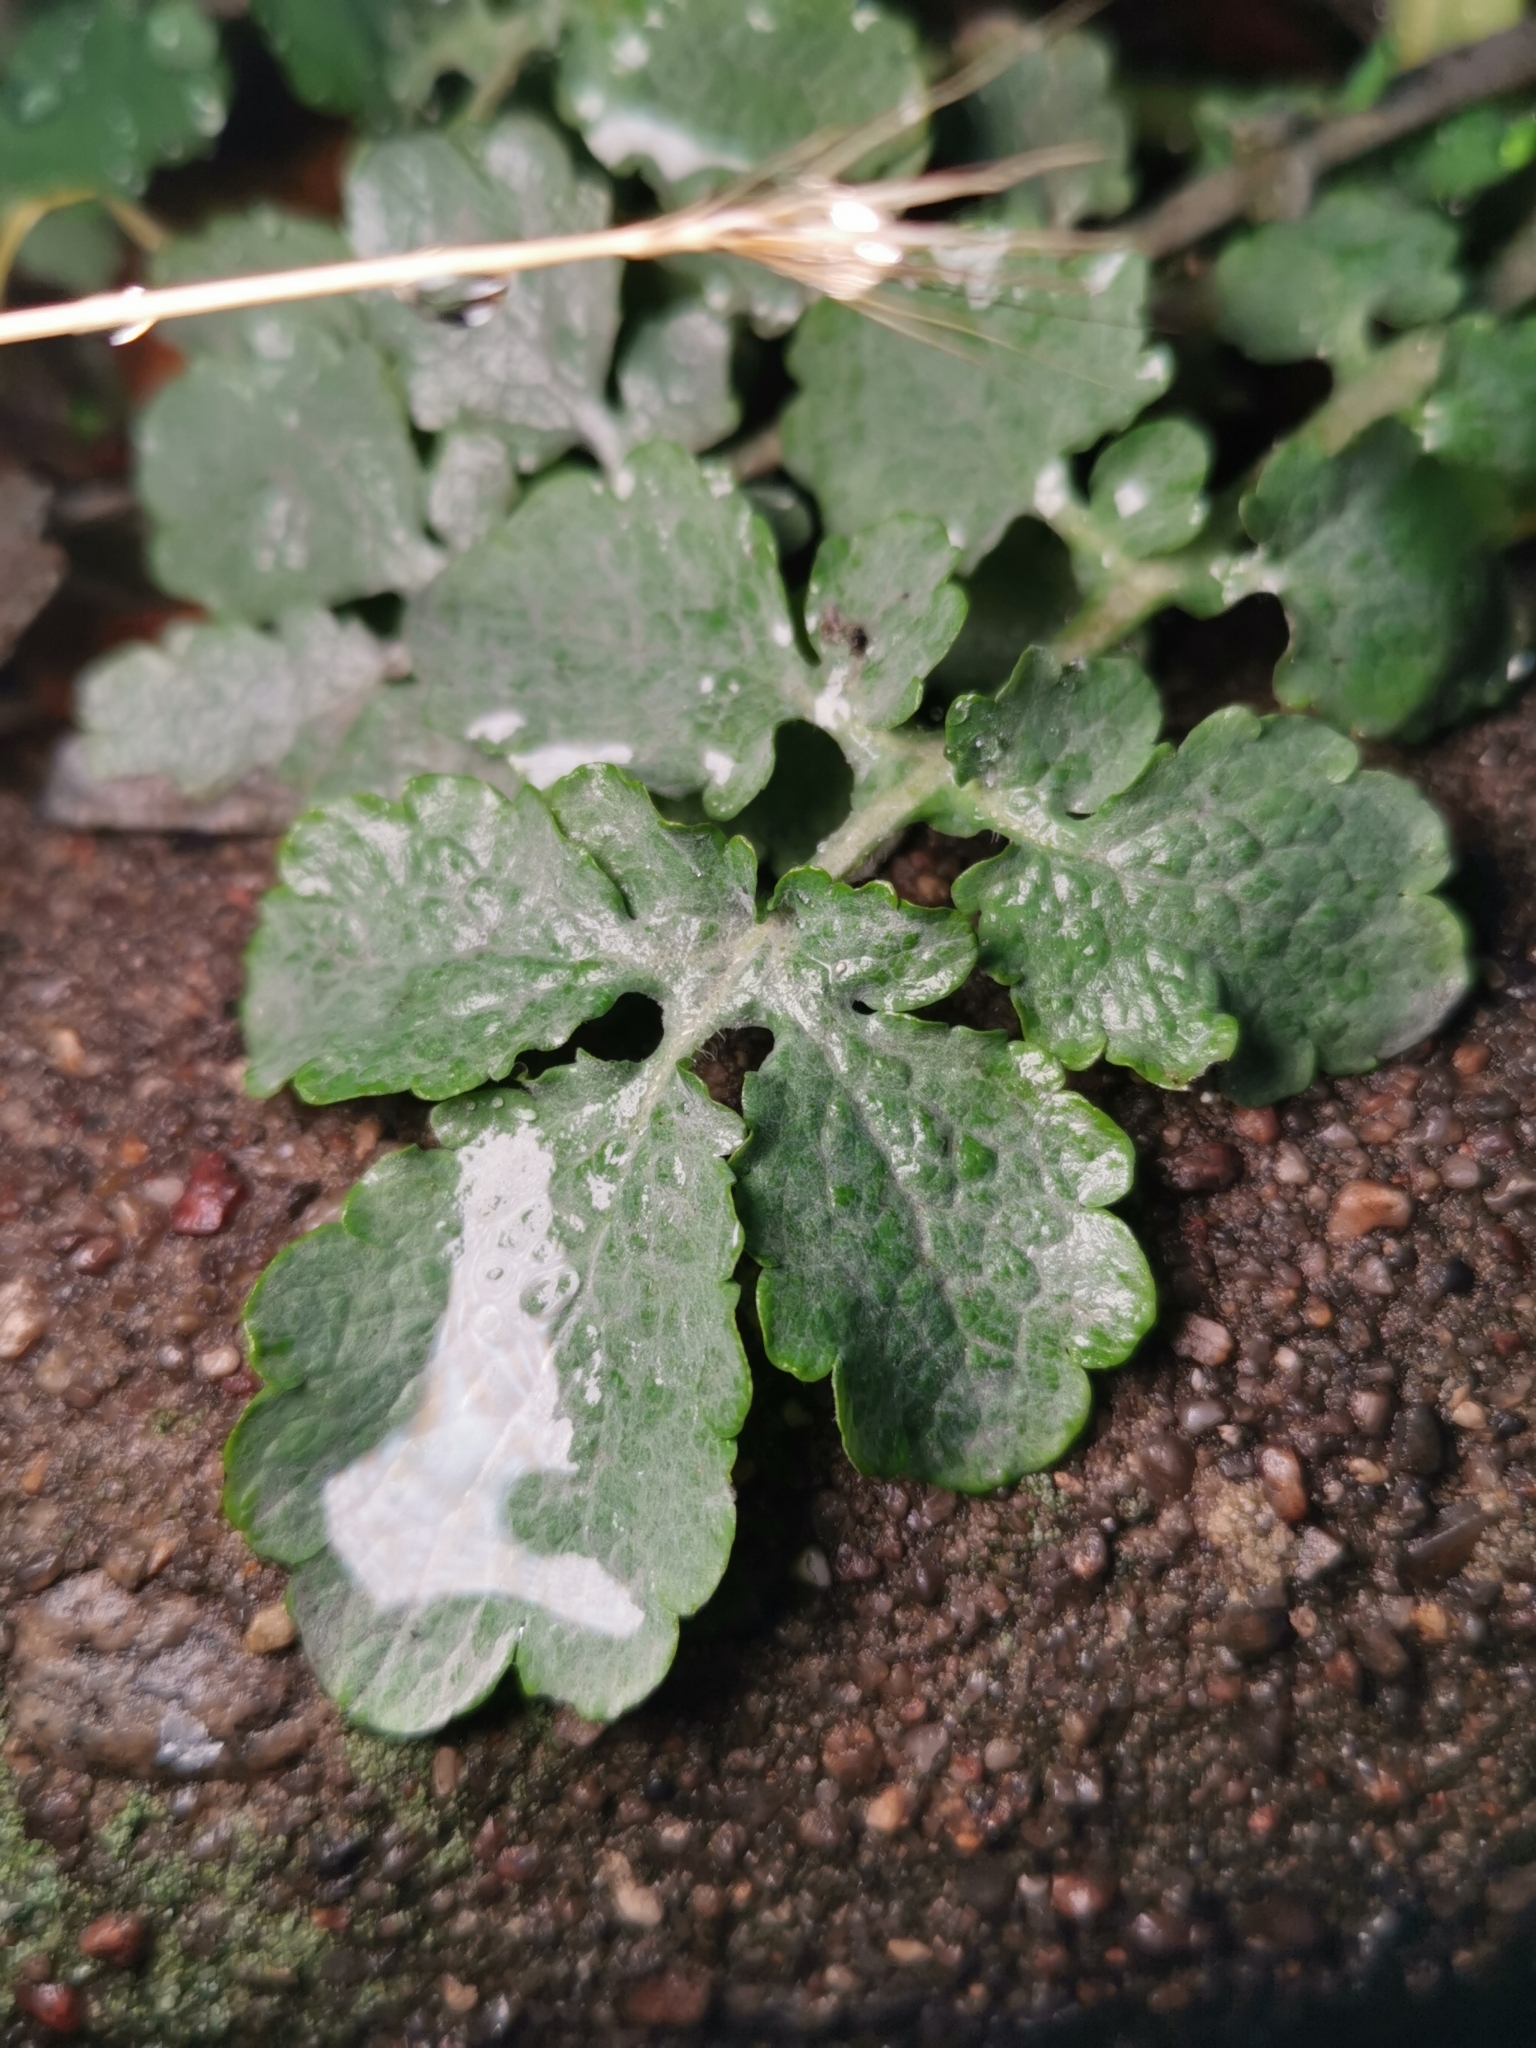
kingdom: Plantae
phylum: Tracheophyta
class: Magnoliopsida
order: Ranunculales
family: Papaveraceae
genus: Chelidonium
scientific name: Chelidonium majus
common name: Greater celandine
